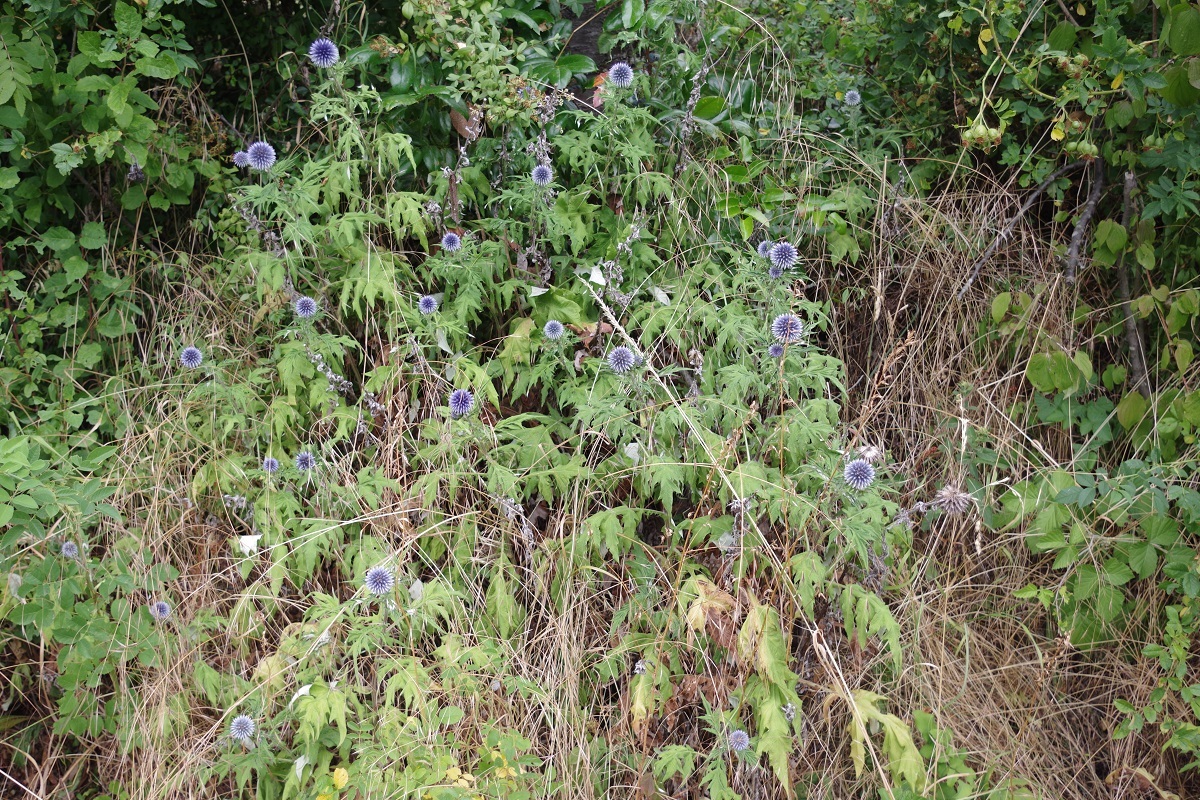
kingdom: Plantae
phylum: Tracheophyta
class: Magnoliopsida
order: Asterales
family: Asteraceae
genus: Echinops
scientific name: Echinops bannaticus
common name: Blue globe-thistle
